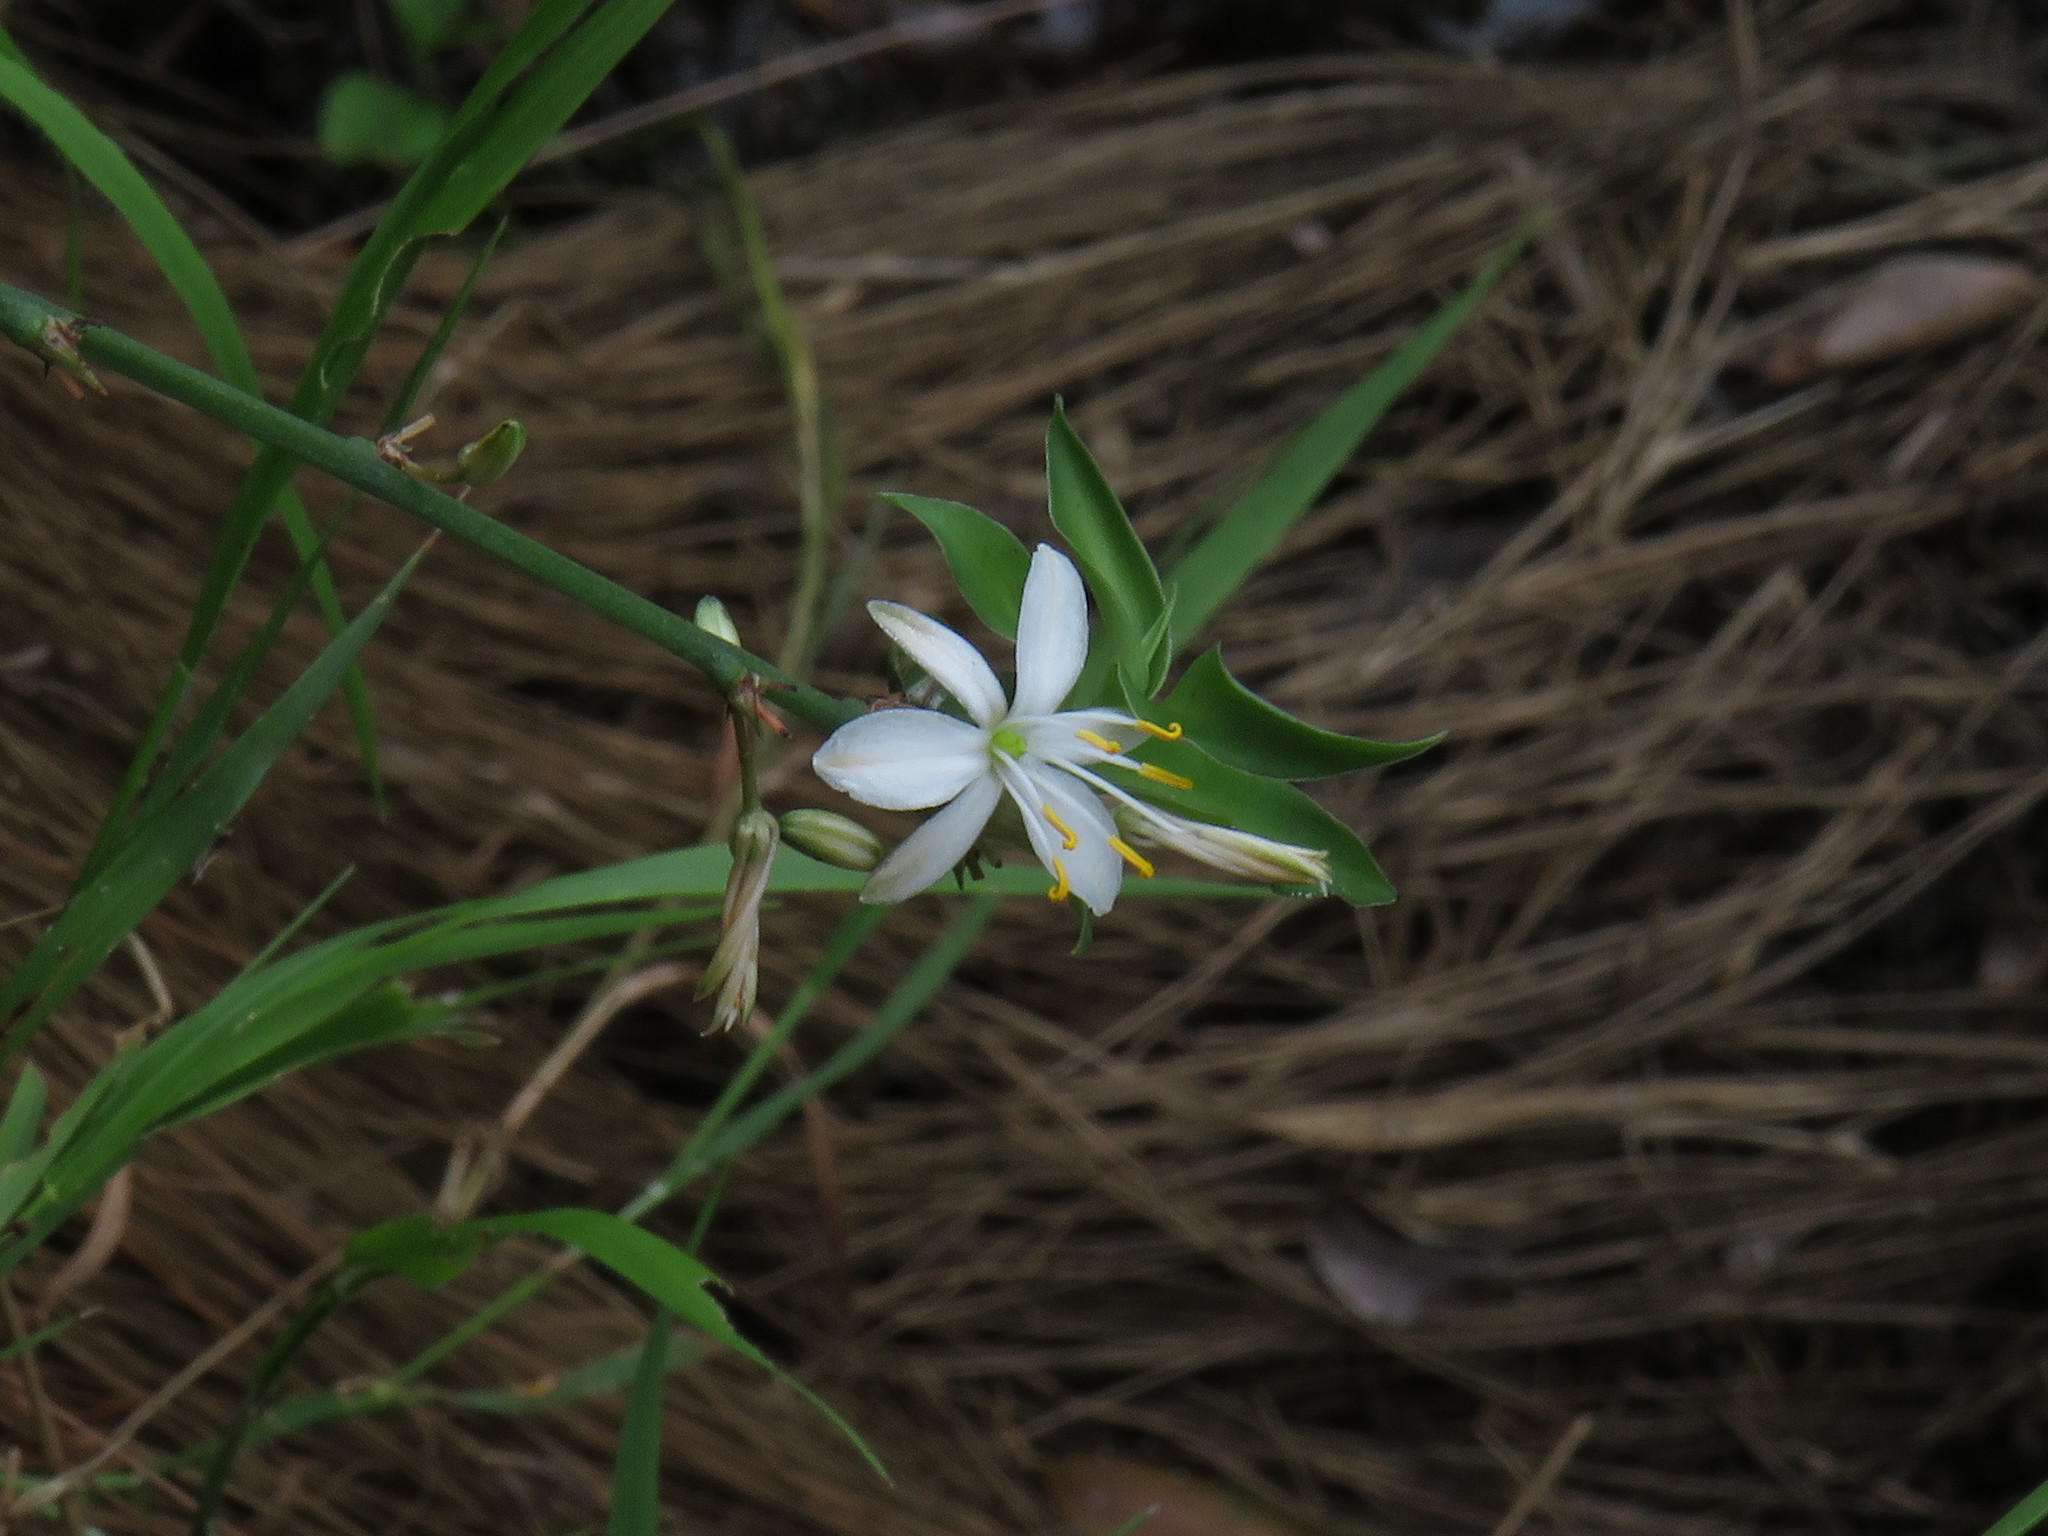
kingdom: Plantae
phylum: Tracheophyta
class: Liliopsida
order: Asparagales
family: Asparagaceae
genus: Chlorophytum
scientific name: Chlorophytum comosum
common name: Spider plant
